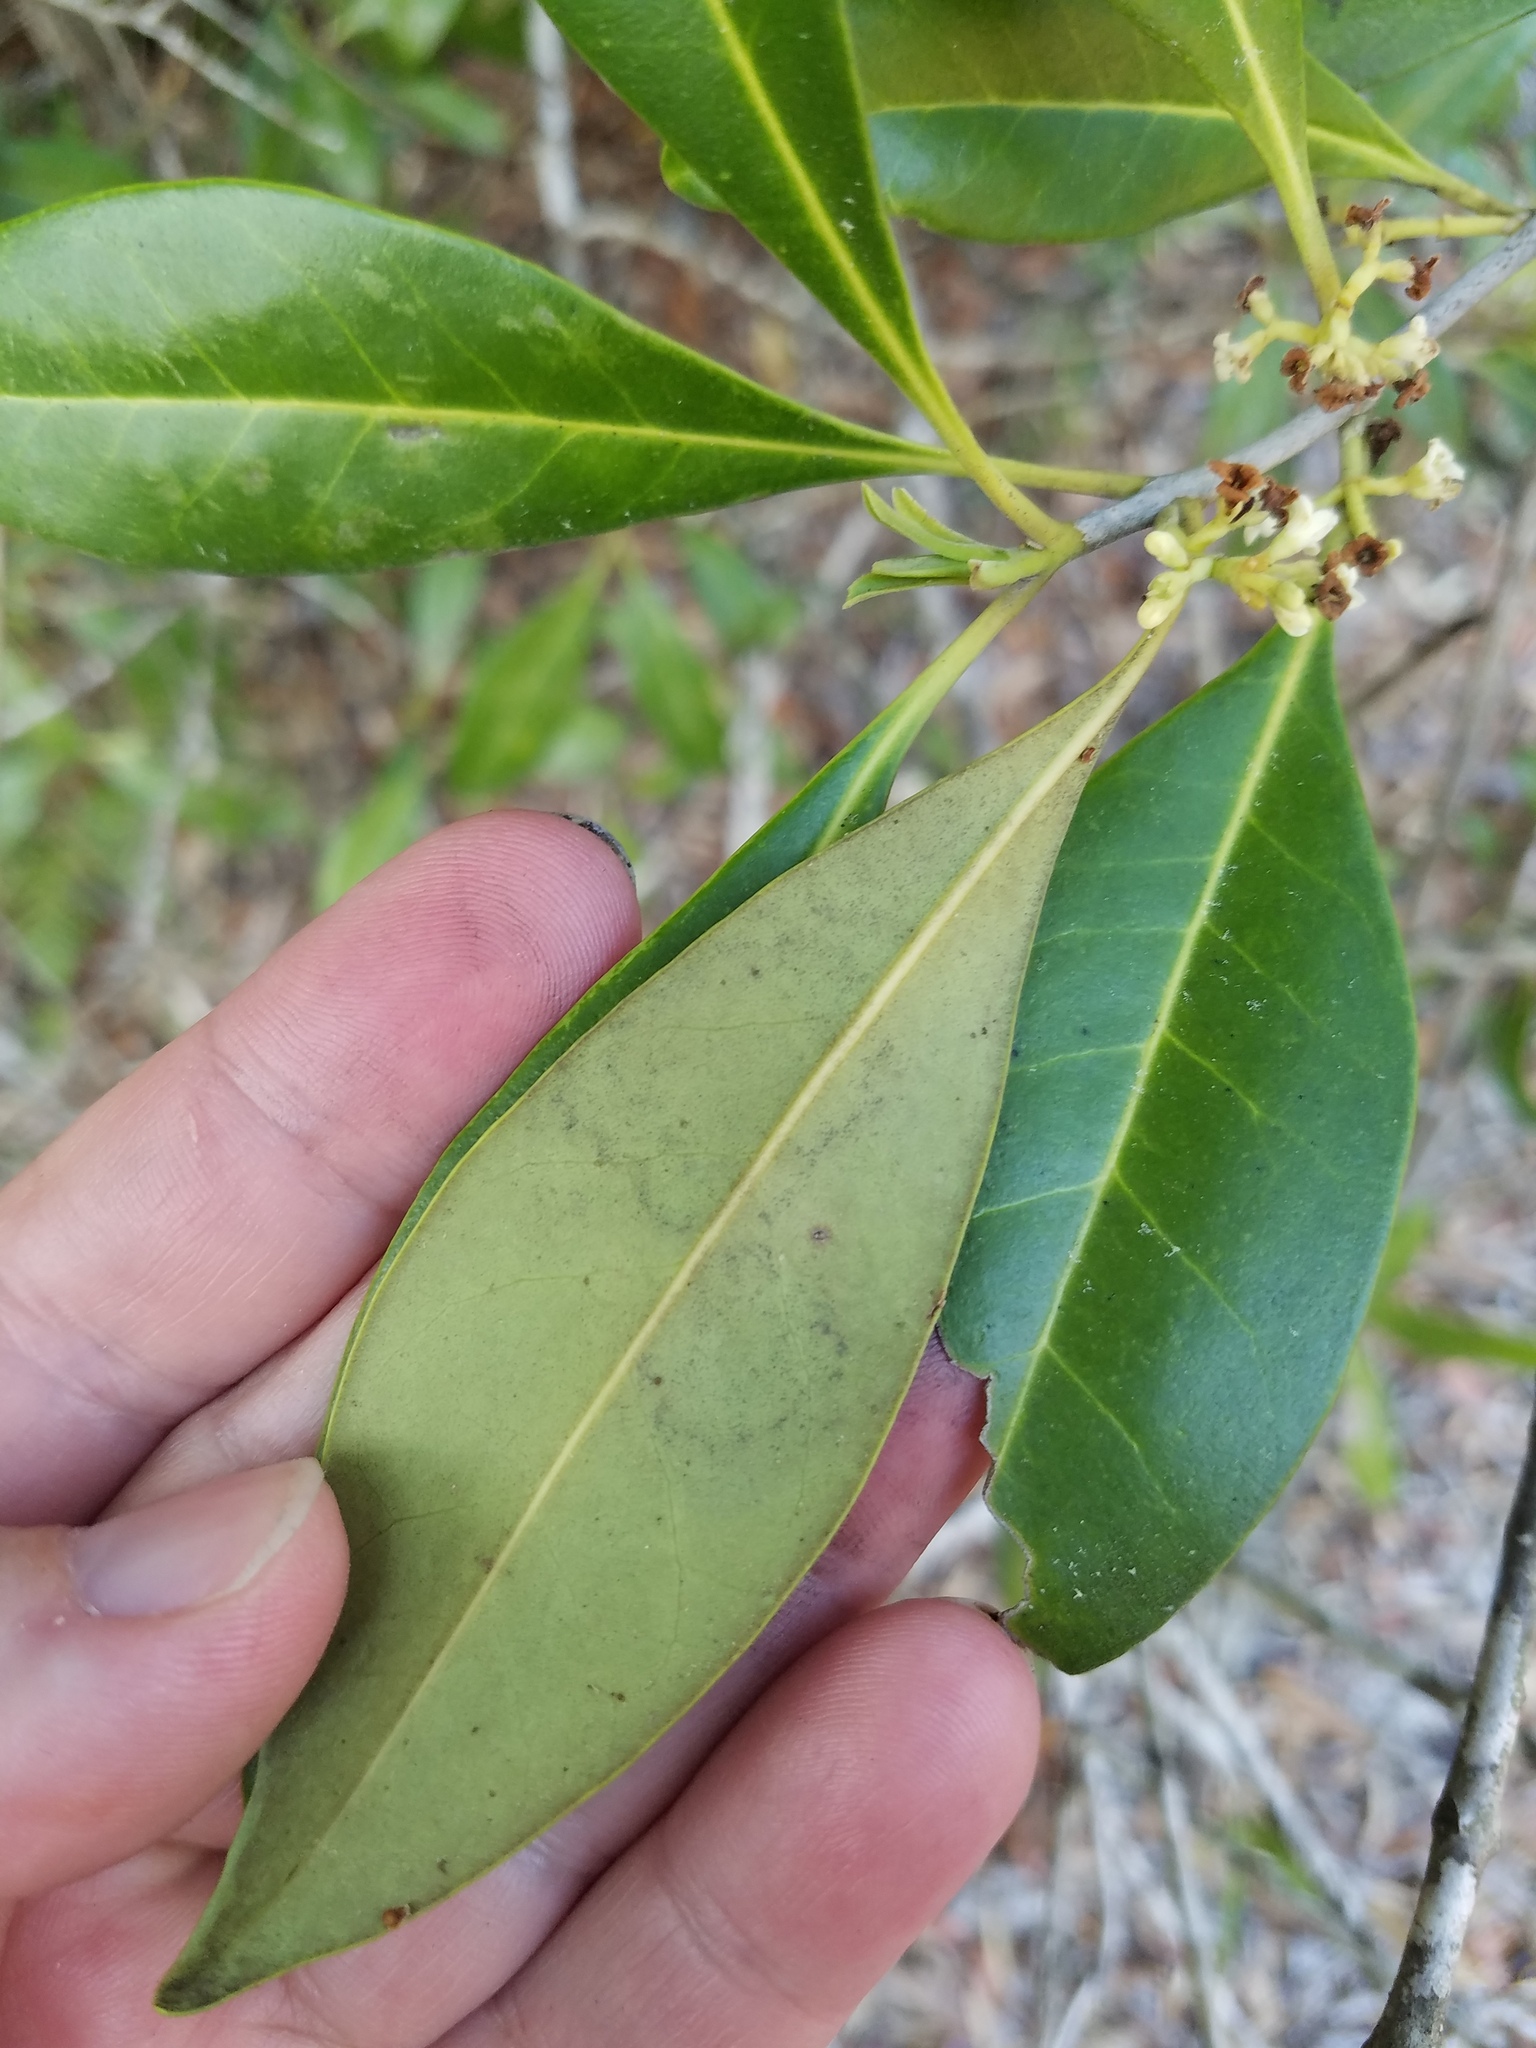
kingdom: Plantae
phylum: Tracheophyta
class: Magnoliopsida
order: Lamiales
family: Oleaceae
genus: Cartrema
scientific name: Cartrema americana
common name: Devilwood
